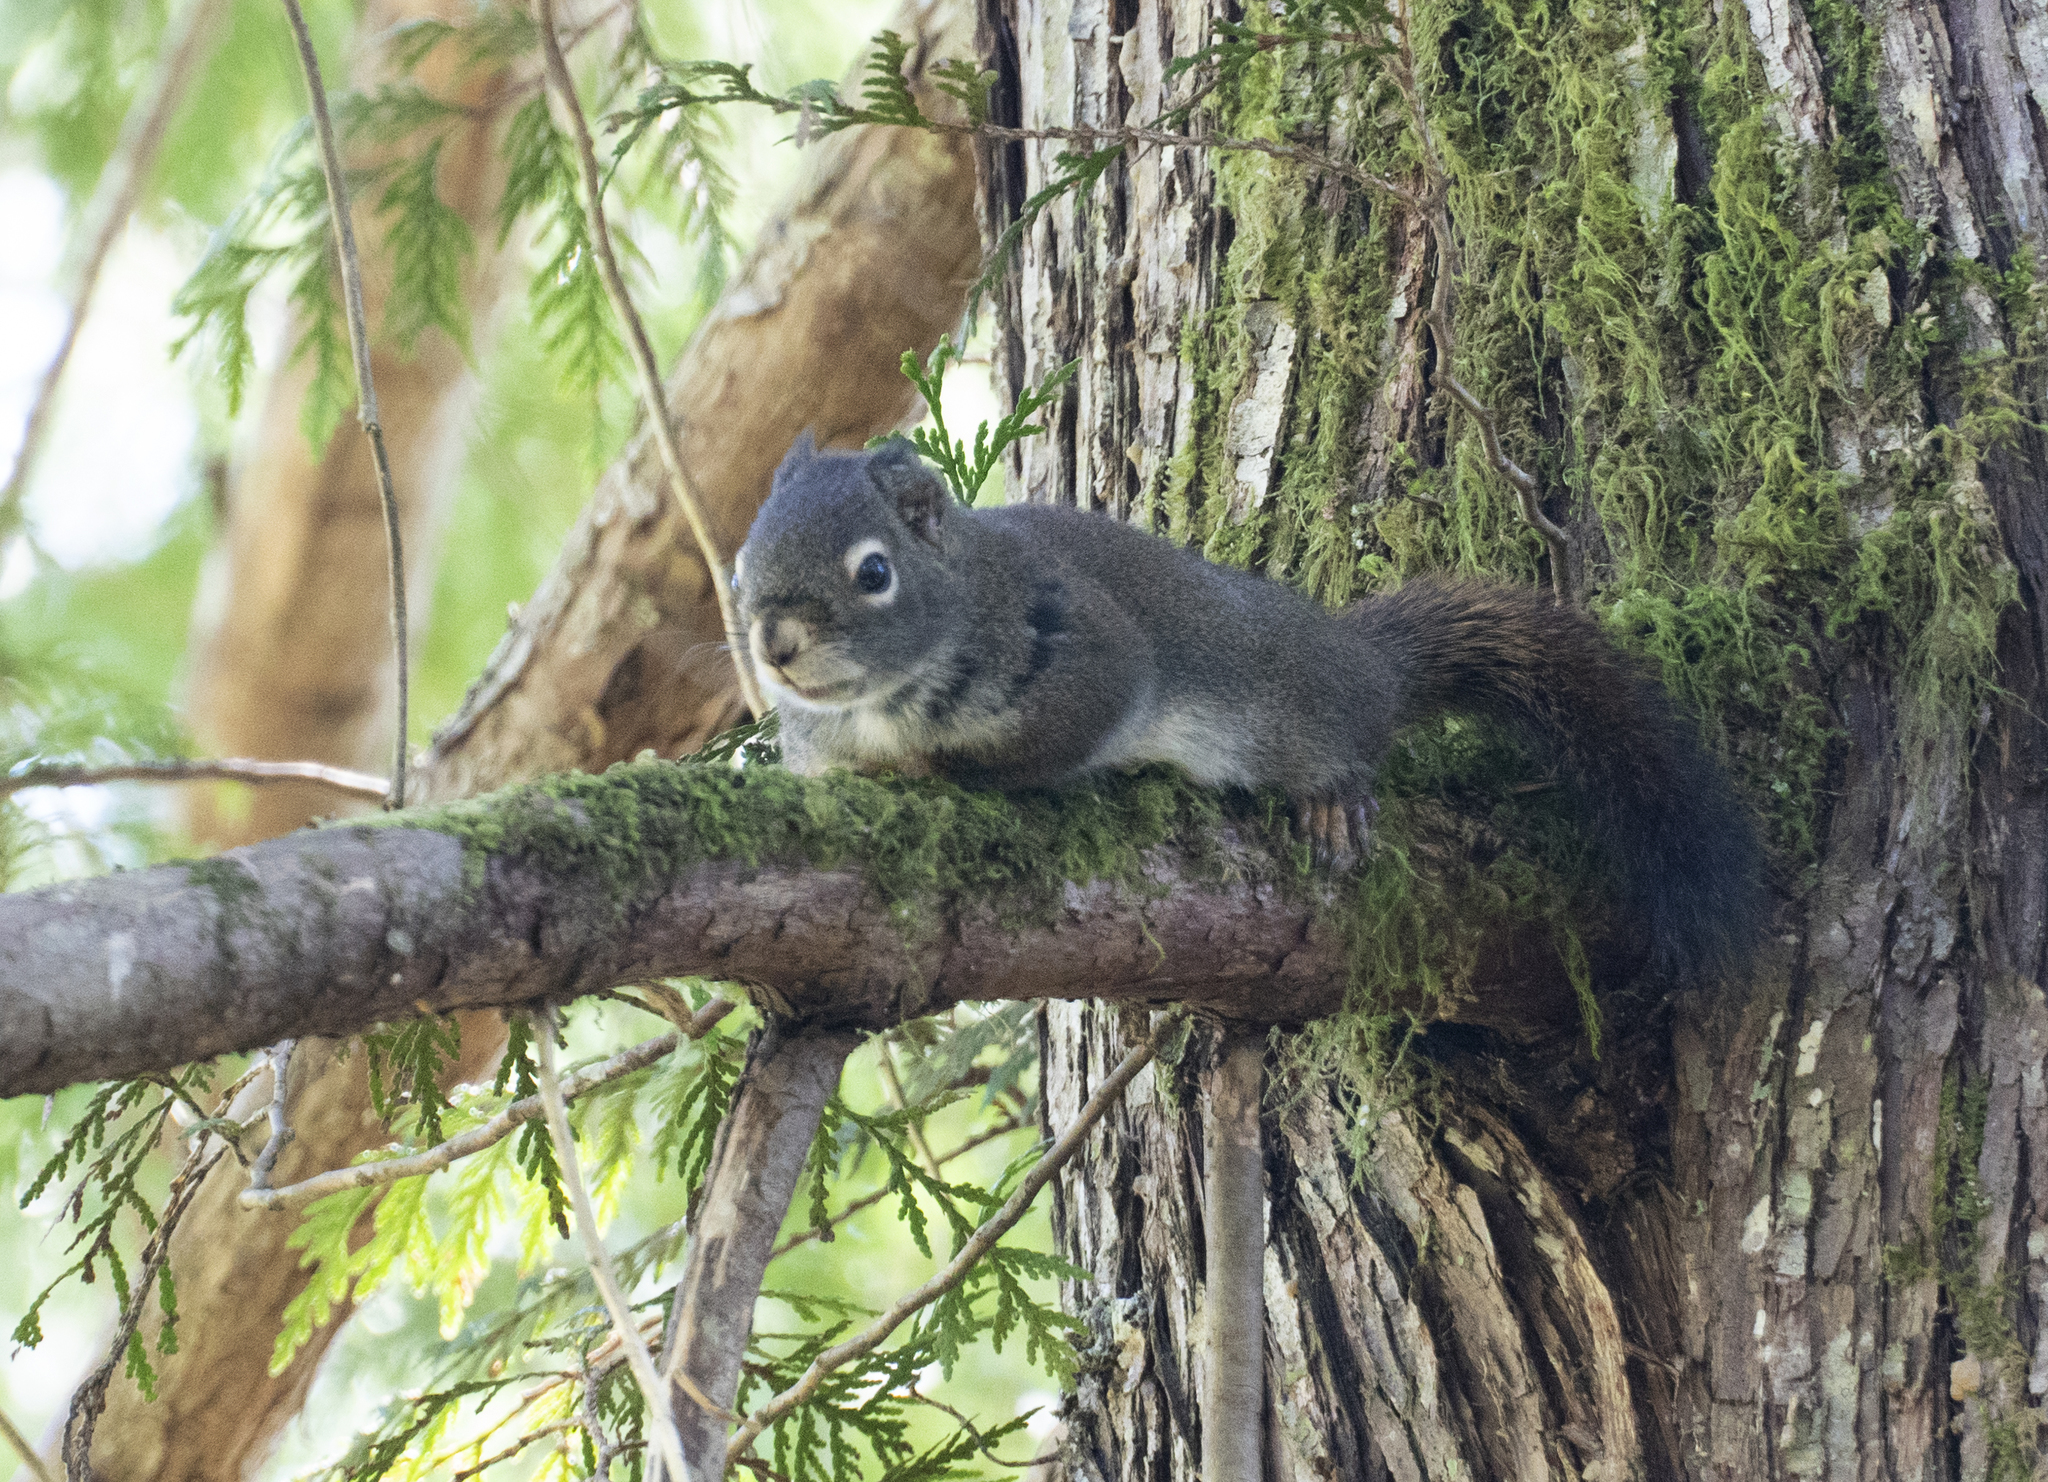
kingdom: Animalia
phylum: Chordata
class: Mammalia
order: Rodentia
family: Sciuridae
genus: Tamiasciurus
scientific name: Tamiasciurus hudsonicus
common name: Red squirrel
